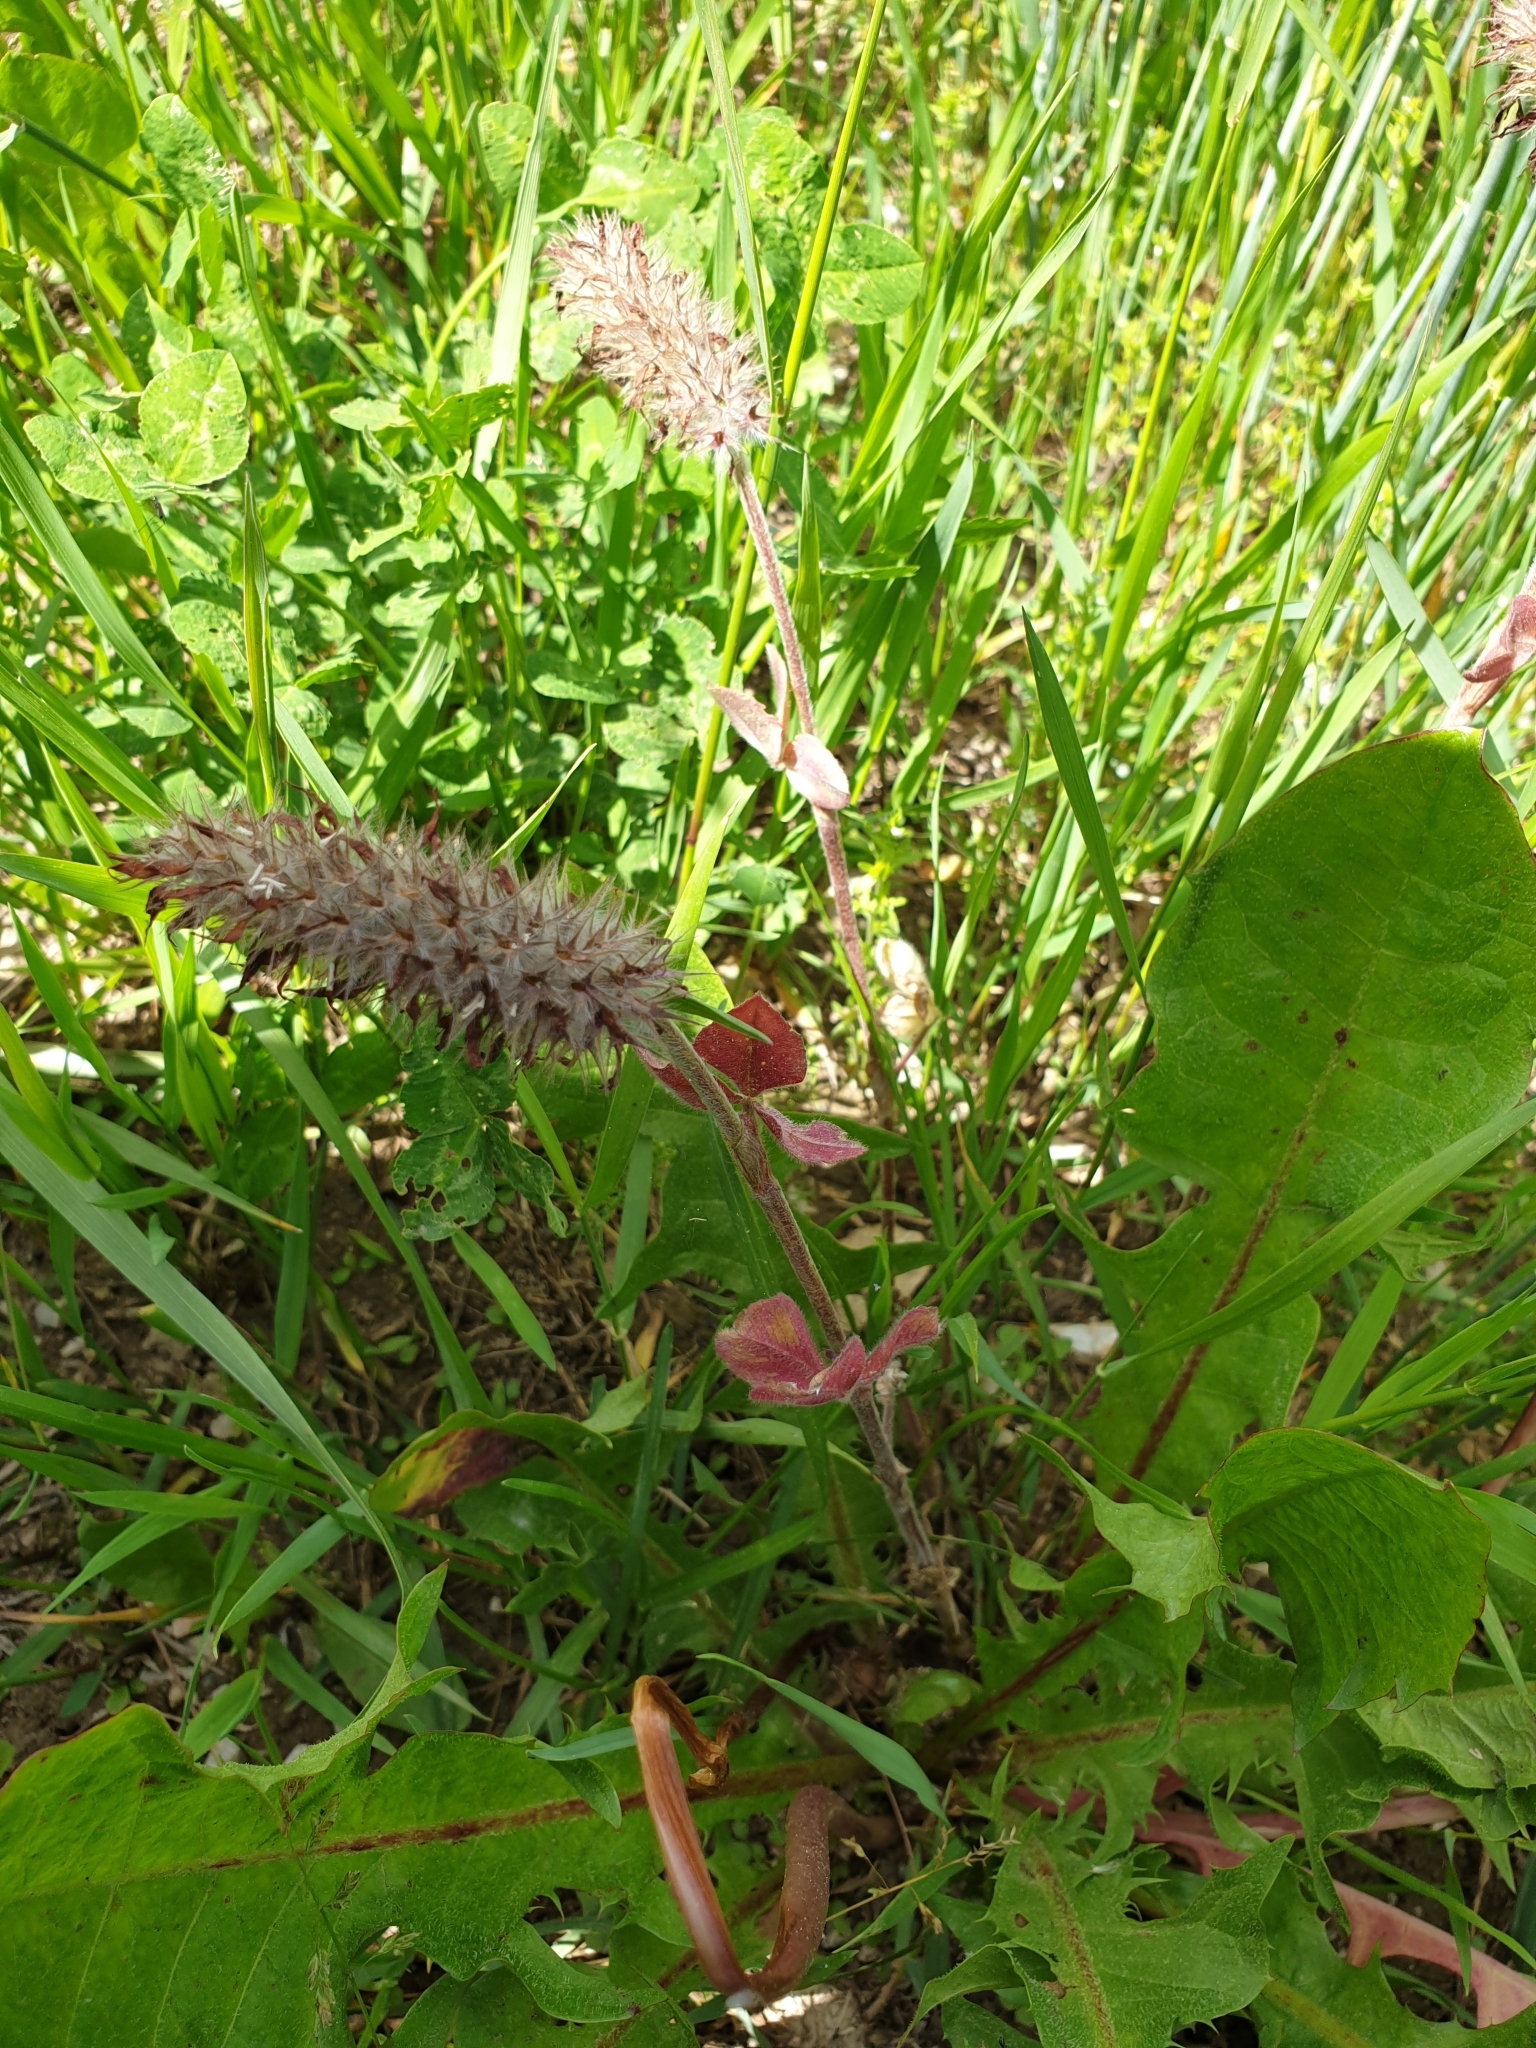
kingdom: Plantae
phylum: Tracheophyta
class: Magnoliopsida
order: Fabales
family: Fabaceae
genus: Trifolium
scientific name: Trifolium incarnatum
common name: Crimson clover
